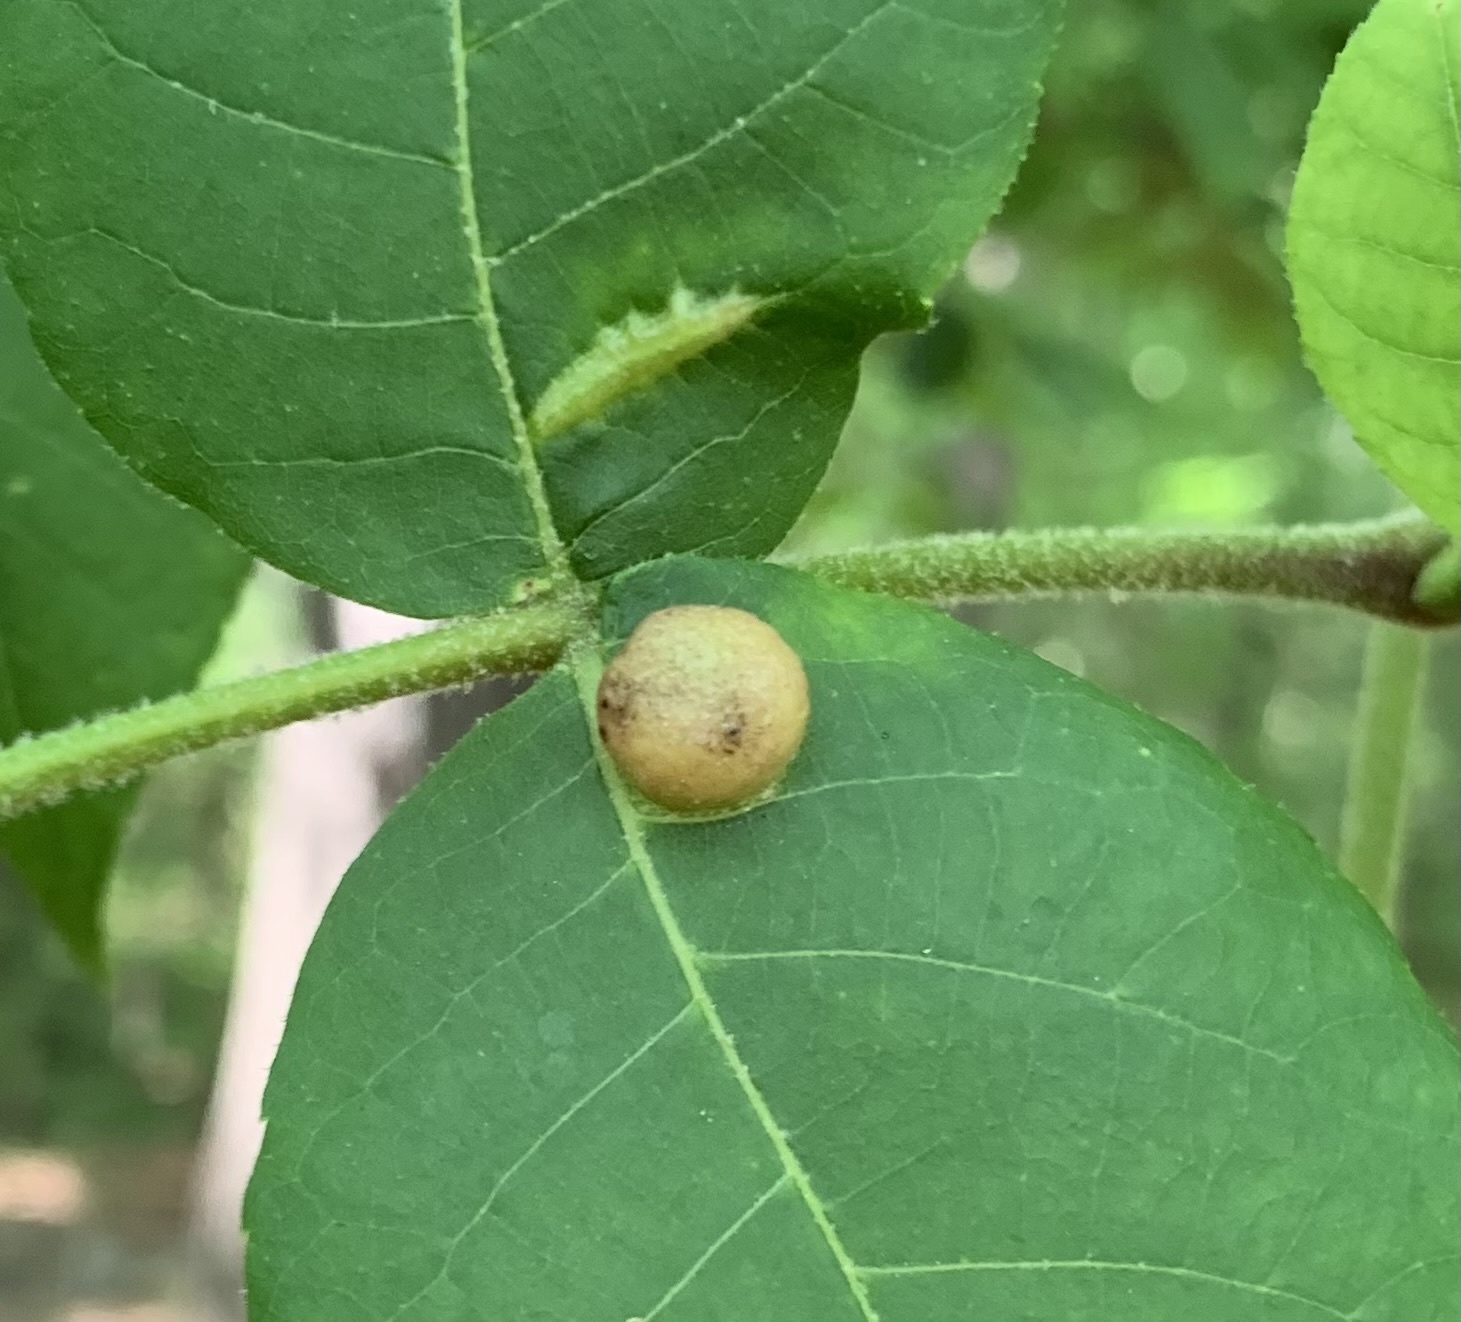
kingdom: Animalia
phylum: Arthropoda
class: Insecta
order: Hemiptera
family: Phylloxeridae
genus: Phylloxera
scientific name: Phylloxera caryae-globuli
